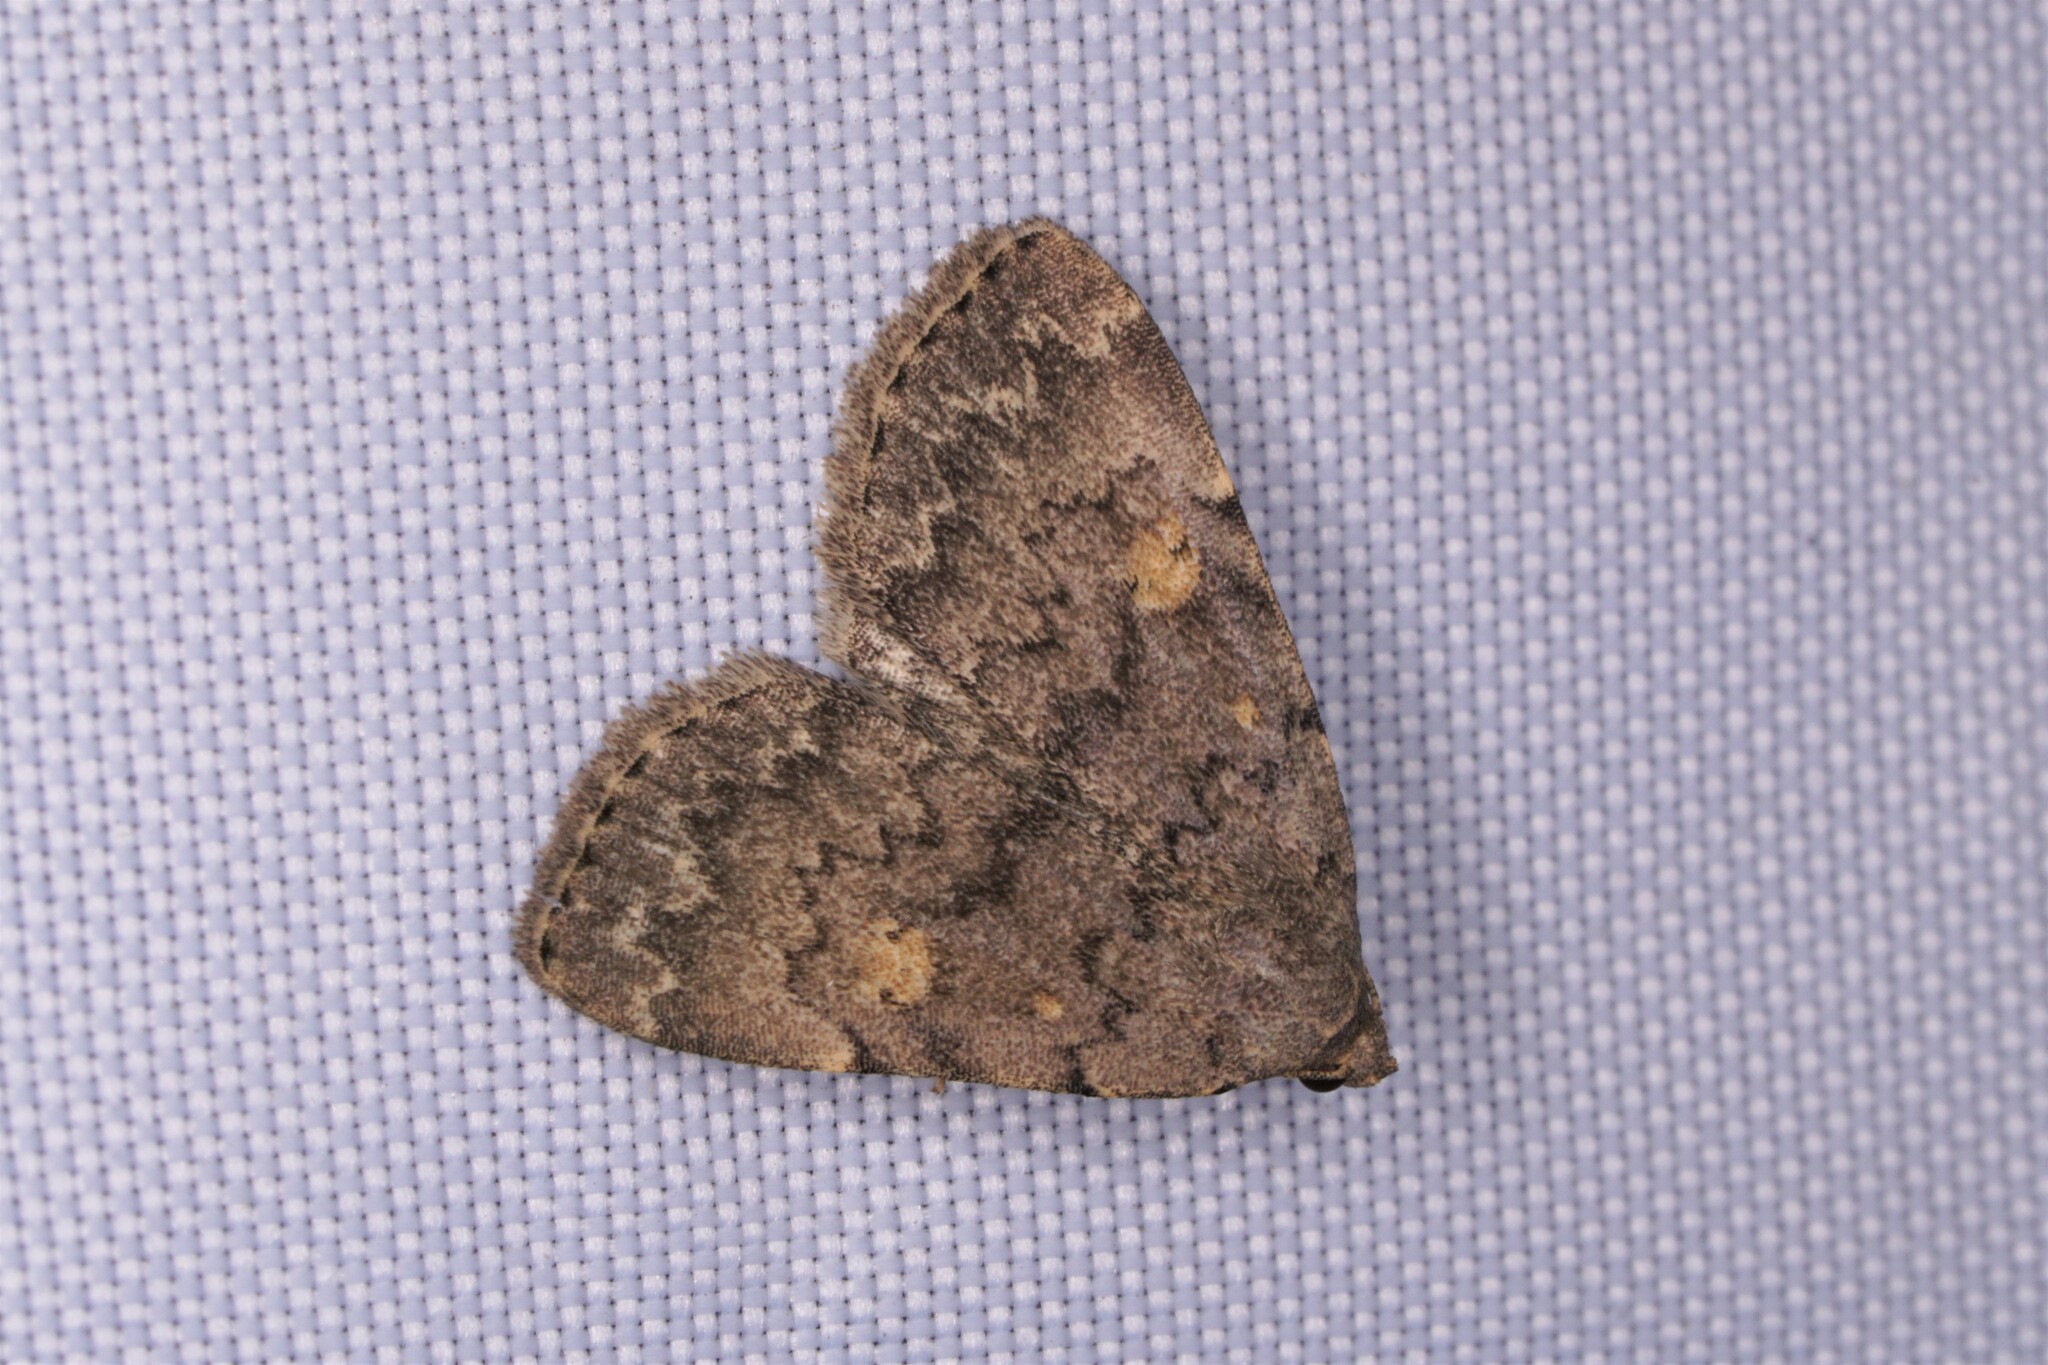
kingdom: Animalia
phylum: Arthropoda
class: Insecta
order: Lepidoptera
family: Erebidae
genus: Idia
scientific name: Idia aemula
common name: Common idia moth
